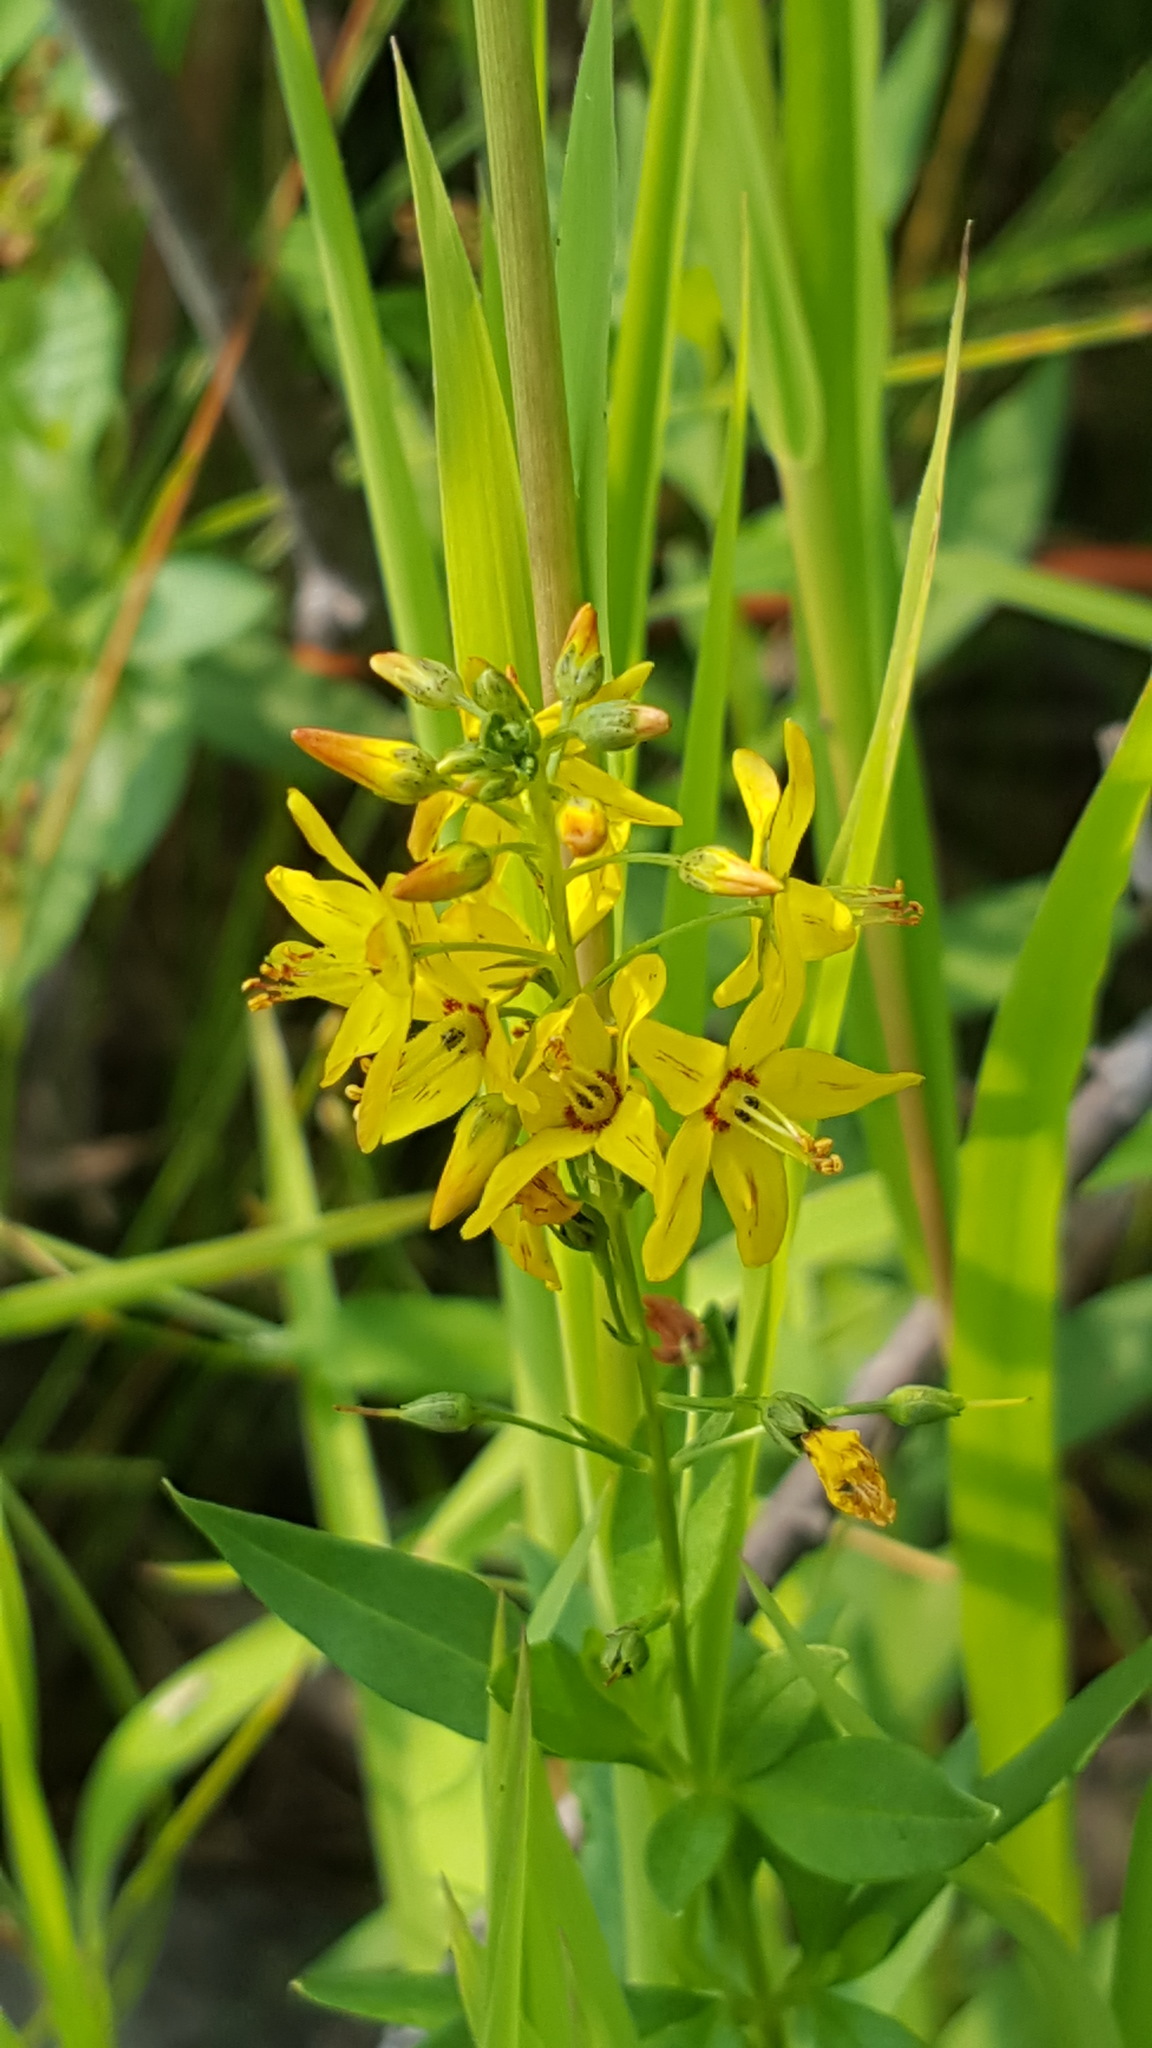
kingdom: Plantae
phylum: Tracheophyta
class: Magnoliopsida
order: Ericales
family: Primulaceae
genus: Lysimachia
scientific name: Lysimachia terrestris
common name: Lake loosestrife
